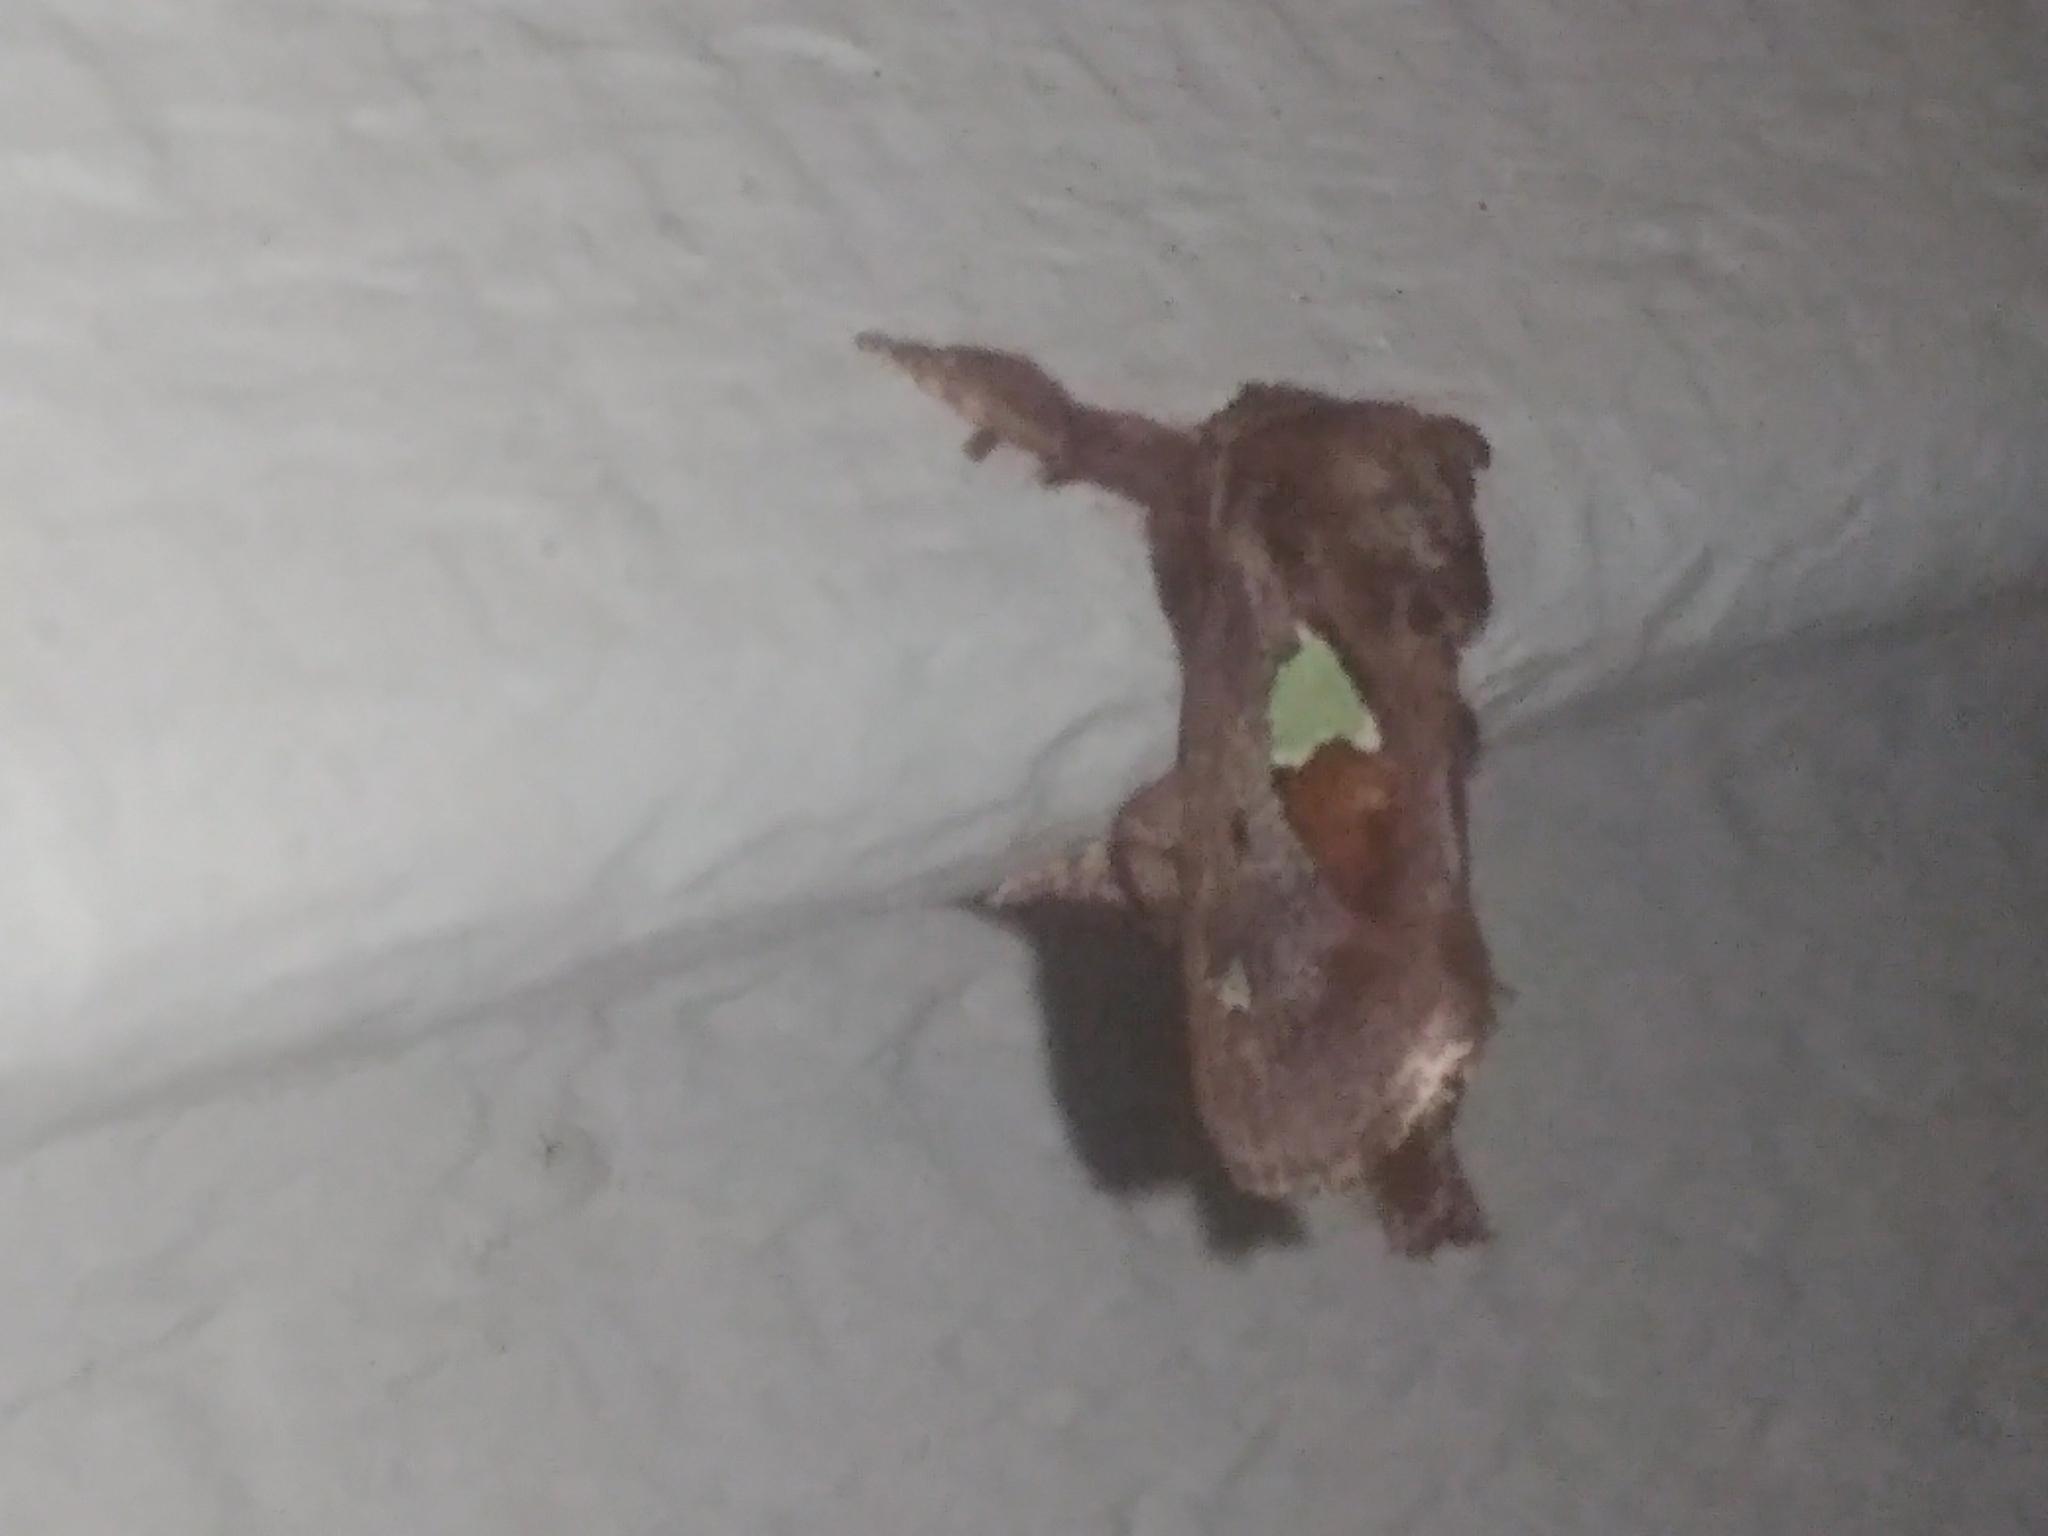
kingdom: Animalia
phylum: Arthropoda
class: Insecta
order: Lepidoptera
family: Limacodidae
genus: Euclea
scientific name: Euclea delphinii
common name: Spiny oak-slug moth
